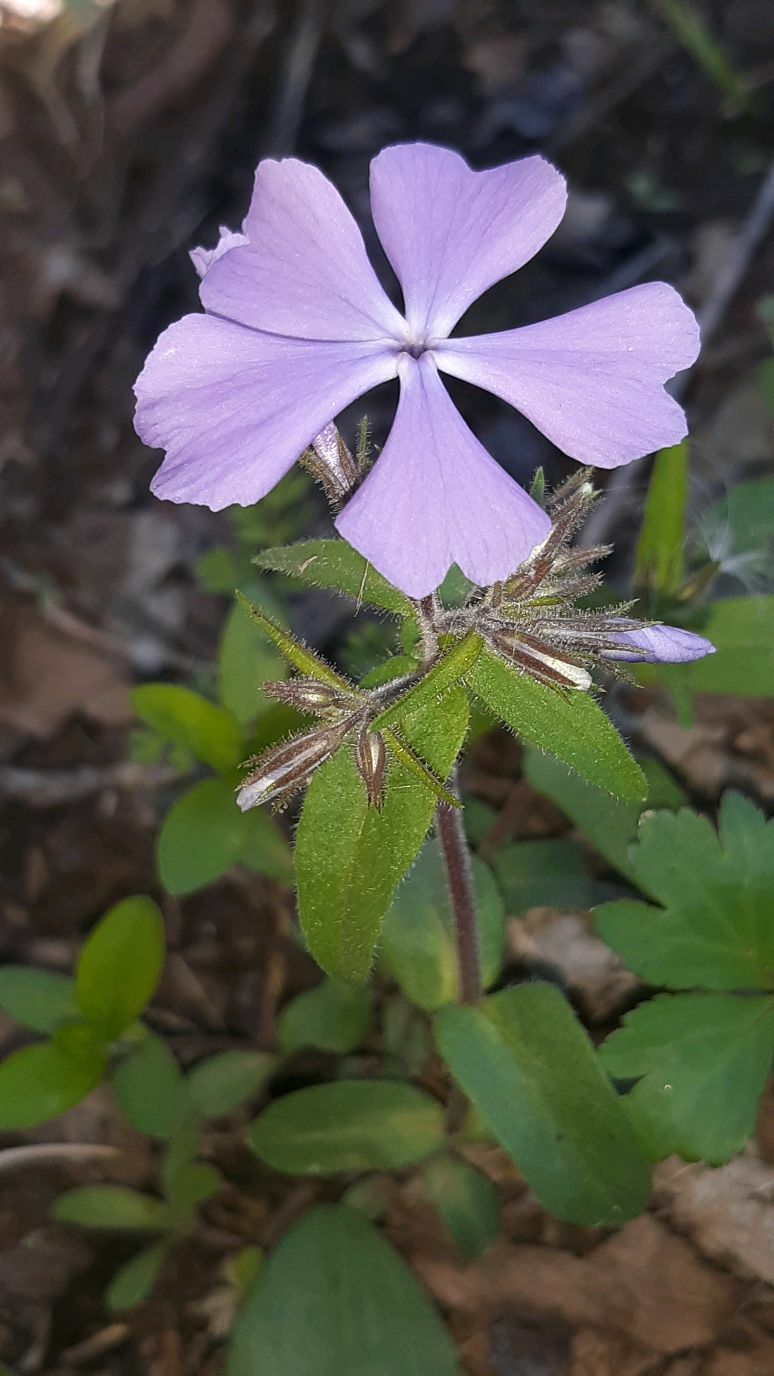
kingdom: Plantae
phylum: Tracheophyta
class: Magnoliopsida
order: Ericales
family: Polemoniaceae
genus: Phlox
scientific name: Phlox divaricata
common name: Blue phlox
